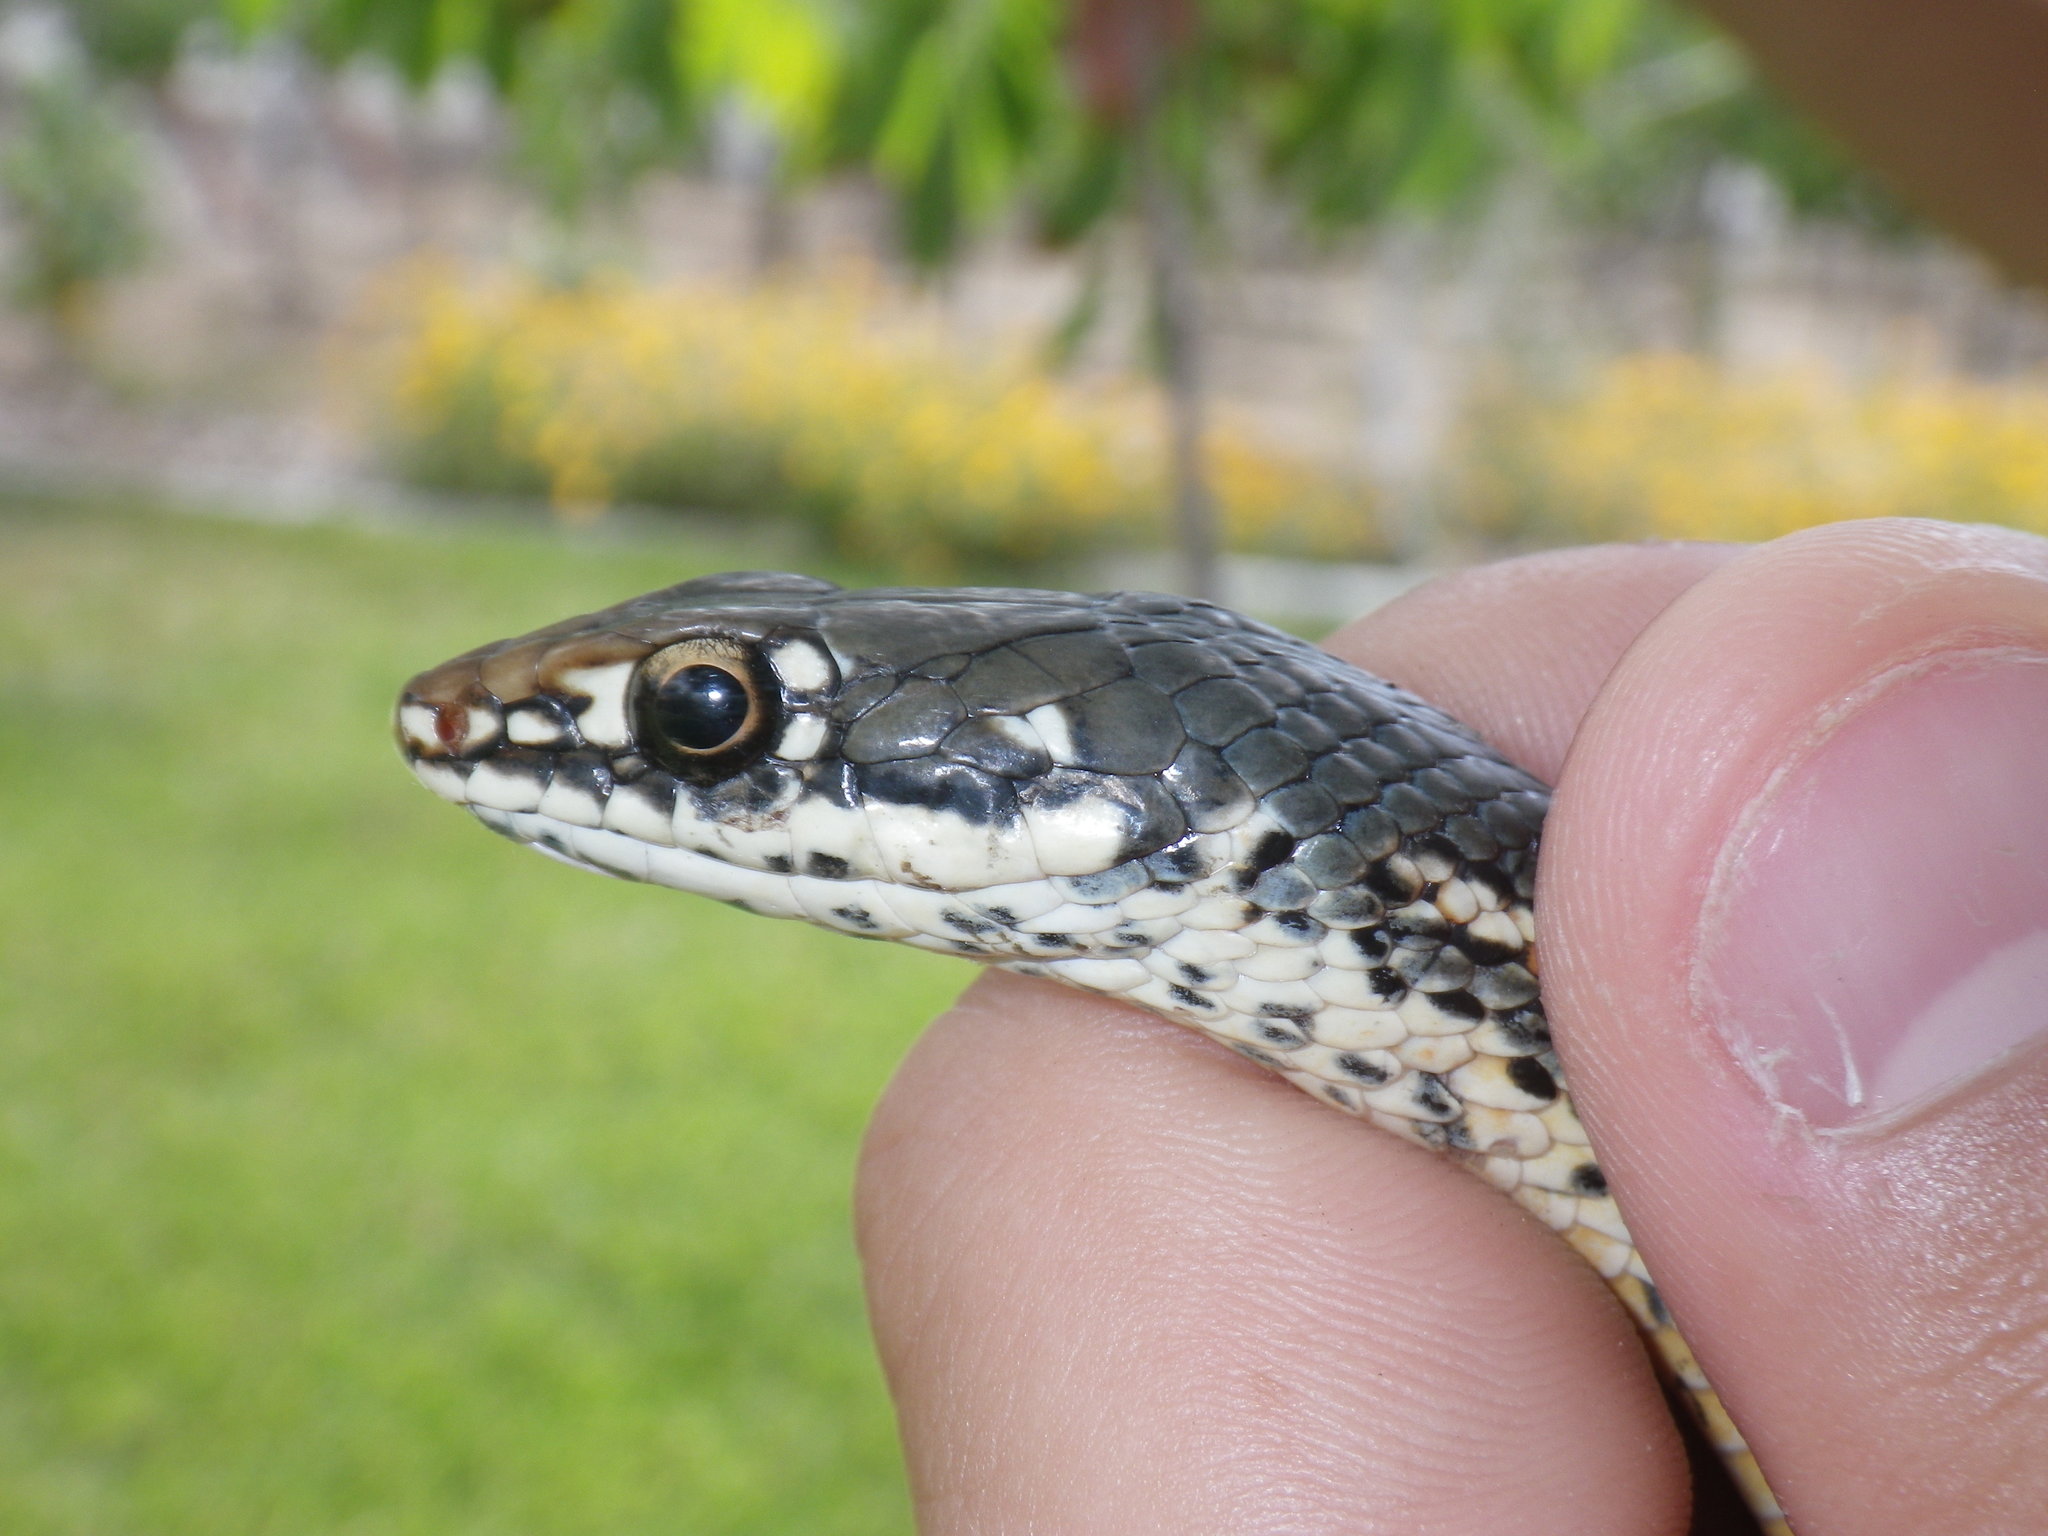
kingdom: Animalia
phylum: Chordata
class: Squamata
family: Colubridae
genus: Masticophis
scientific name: Masticophis lateralis
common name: Striped racer
